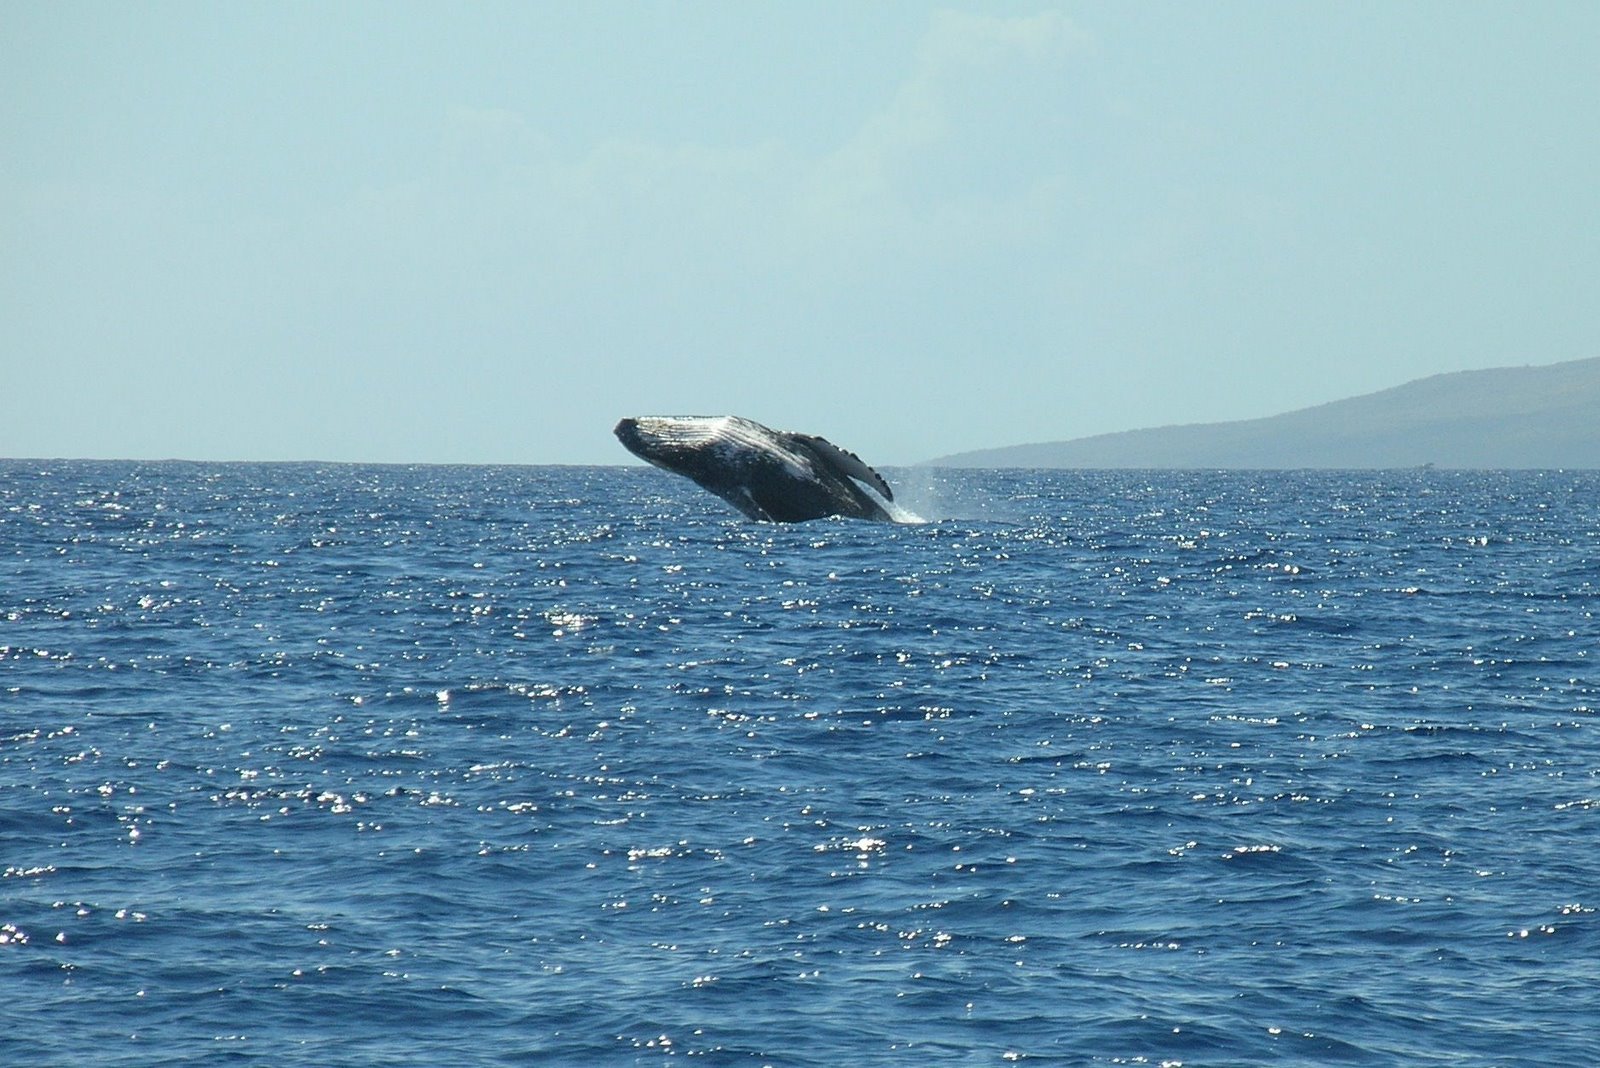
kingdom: Animalia
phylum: Chordata
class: Mammalia
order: Cetacea
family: Balaenopteridae
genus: Megaptera
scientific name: Megaptera novaeangliae
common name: Humpback whale
